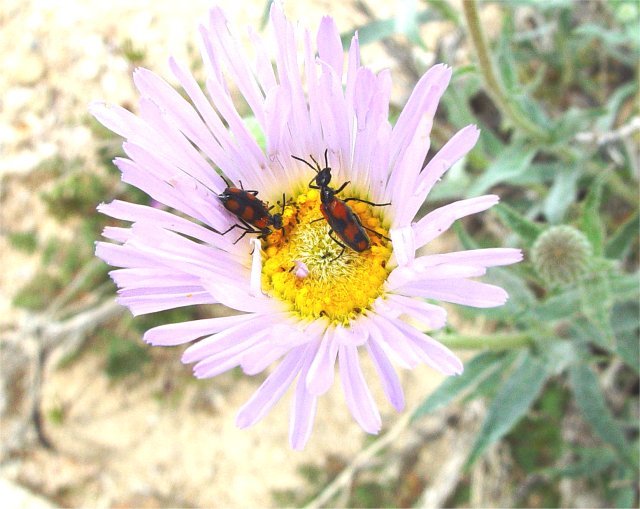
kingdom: Animalia
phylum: Arthropoda
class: Insecta
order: Coleoptera
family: Meloidae
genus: Eupompha
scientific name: Eupompha elegans
